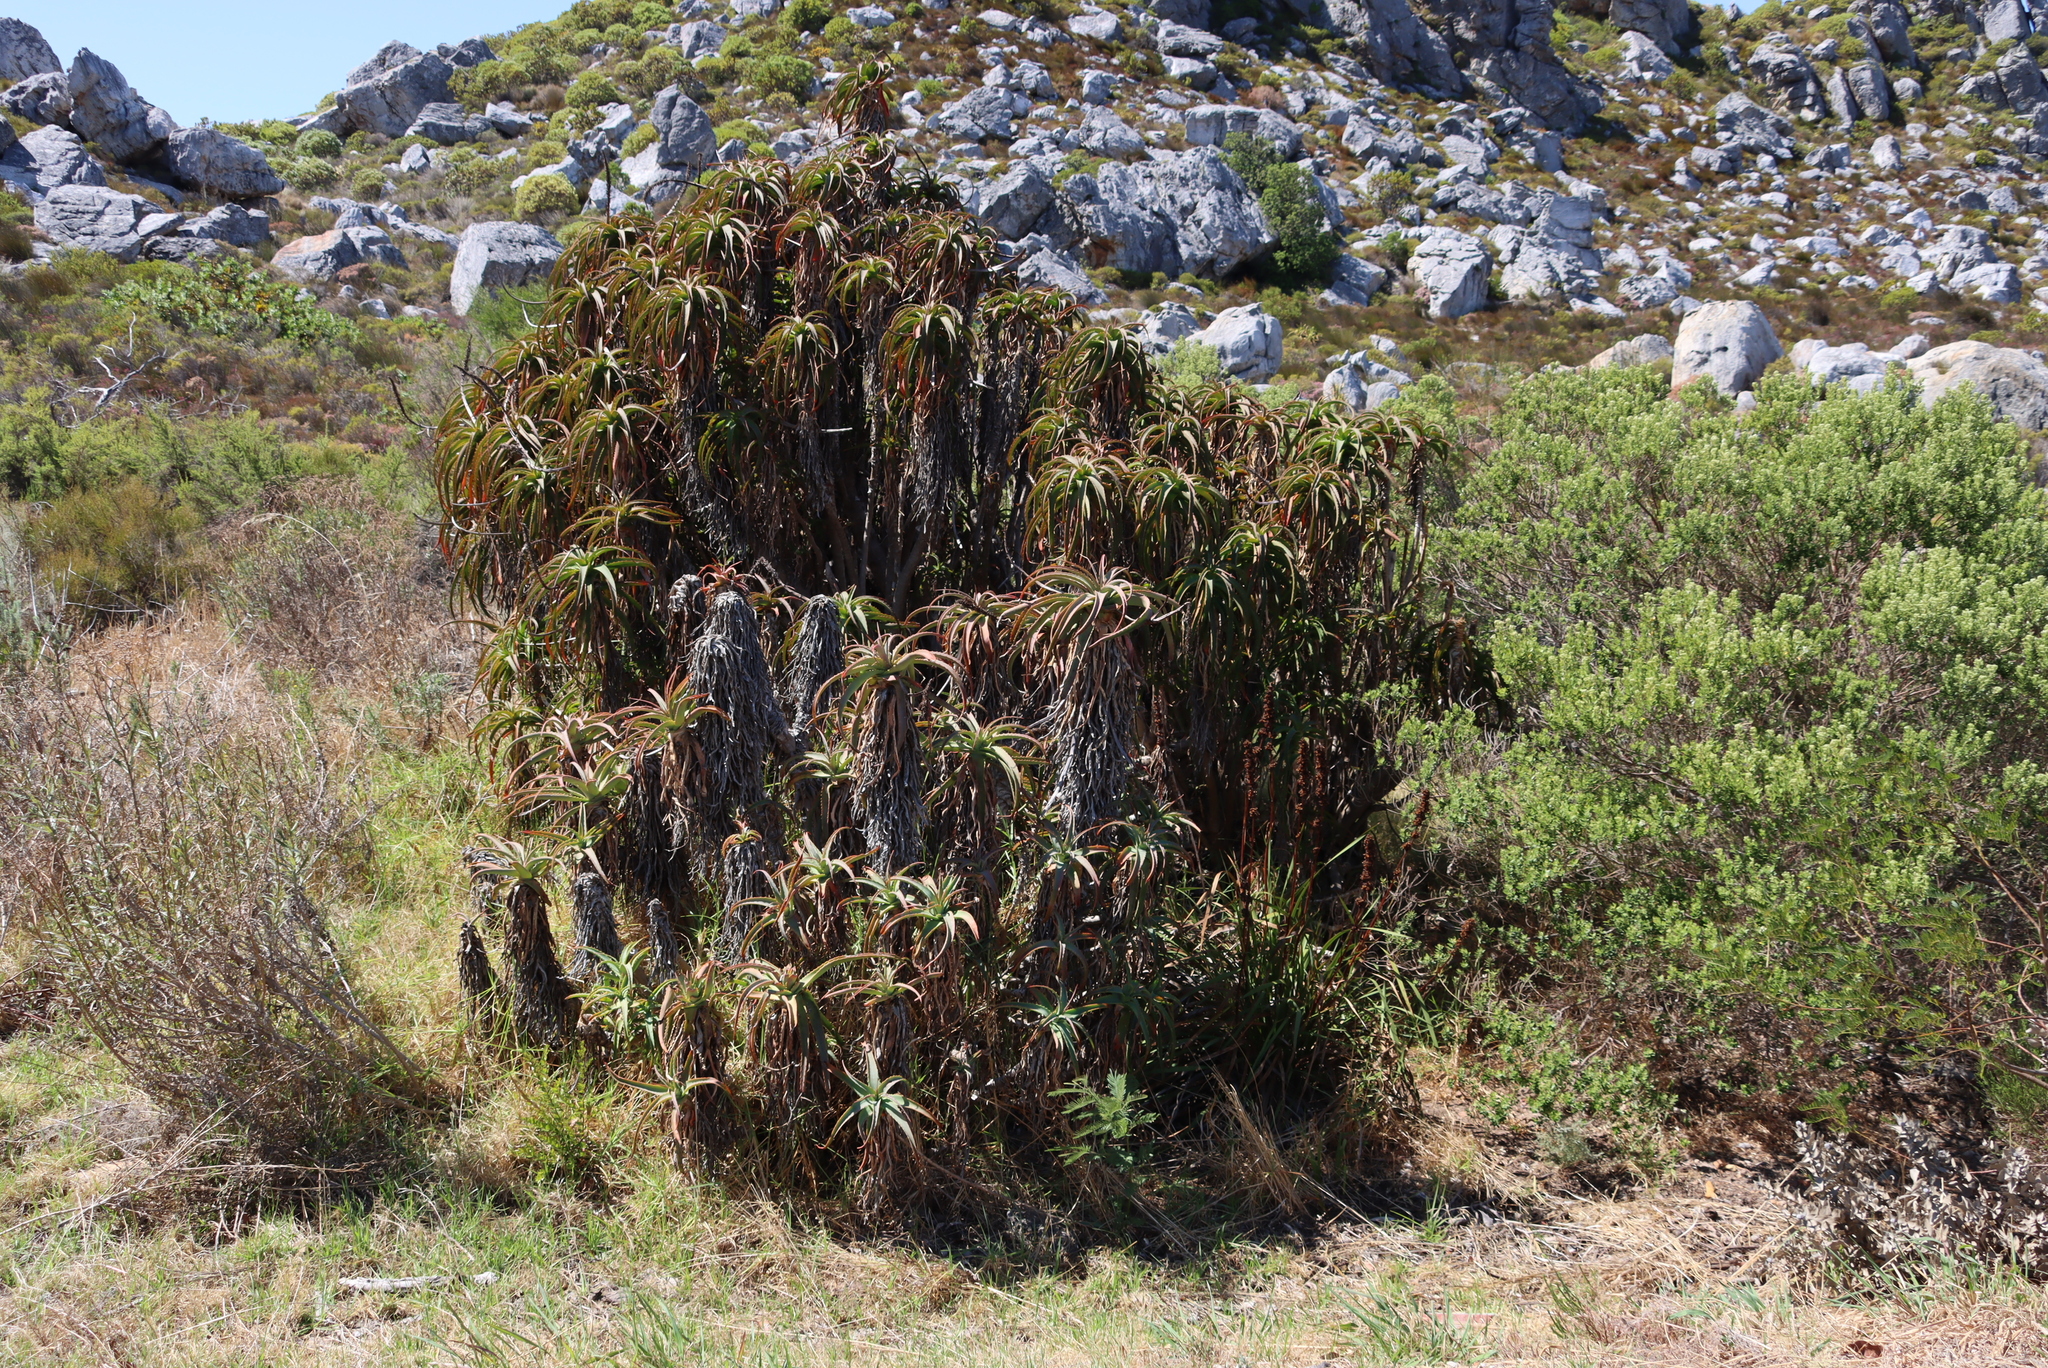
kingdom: Plantae
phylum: Tracheophyta
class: Liliopsida
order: Asparagales
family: Asphodelaceae
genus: Aloe
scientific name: Aloe arborescens
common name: Candelabra aloe
